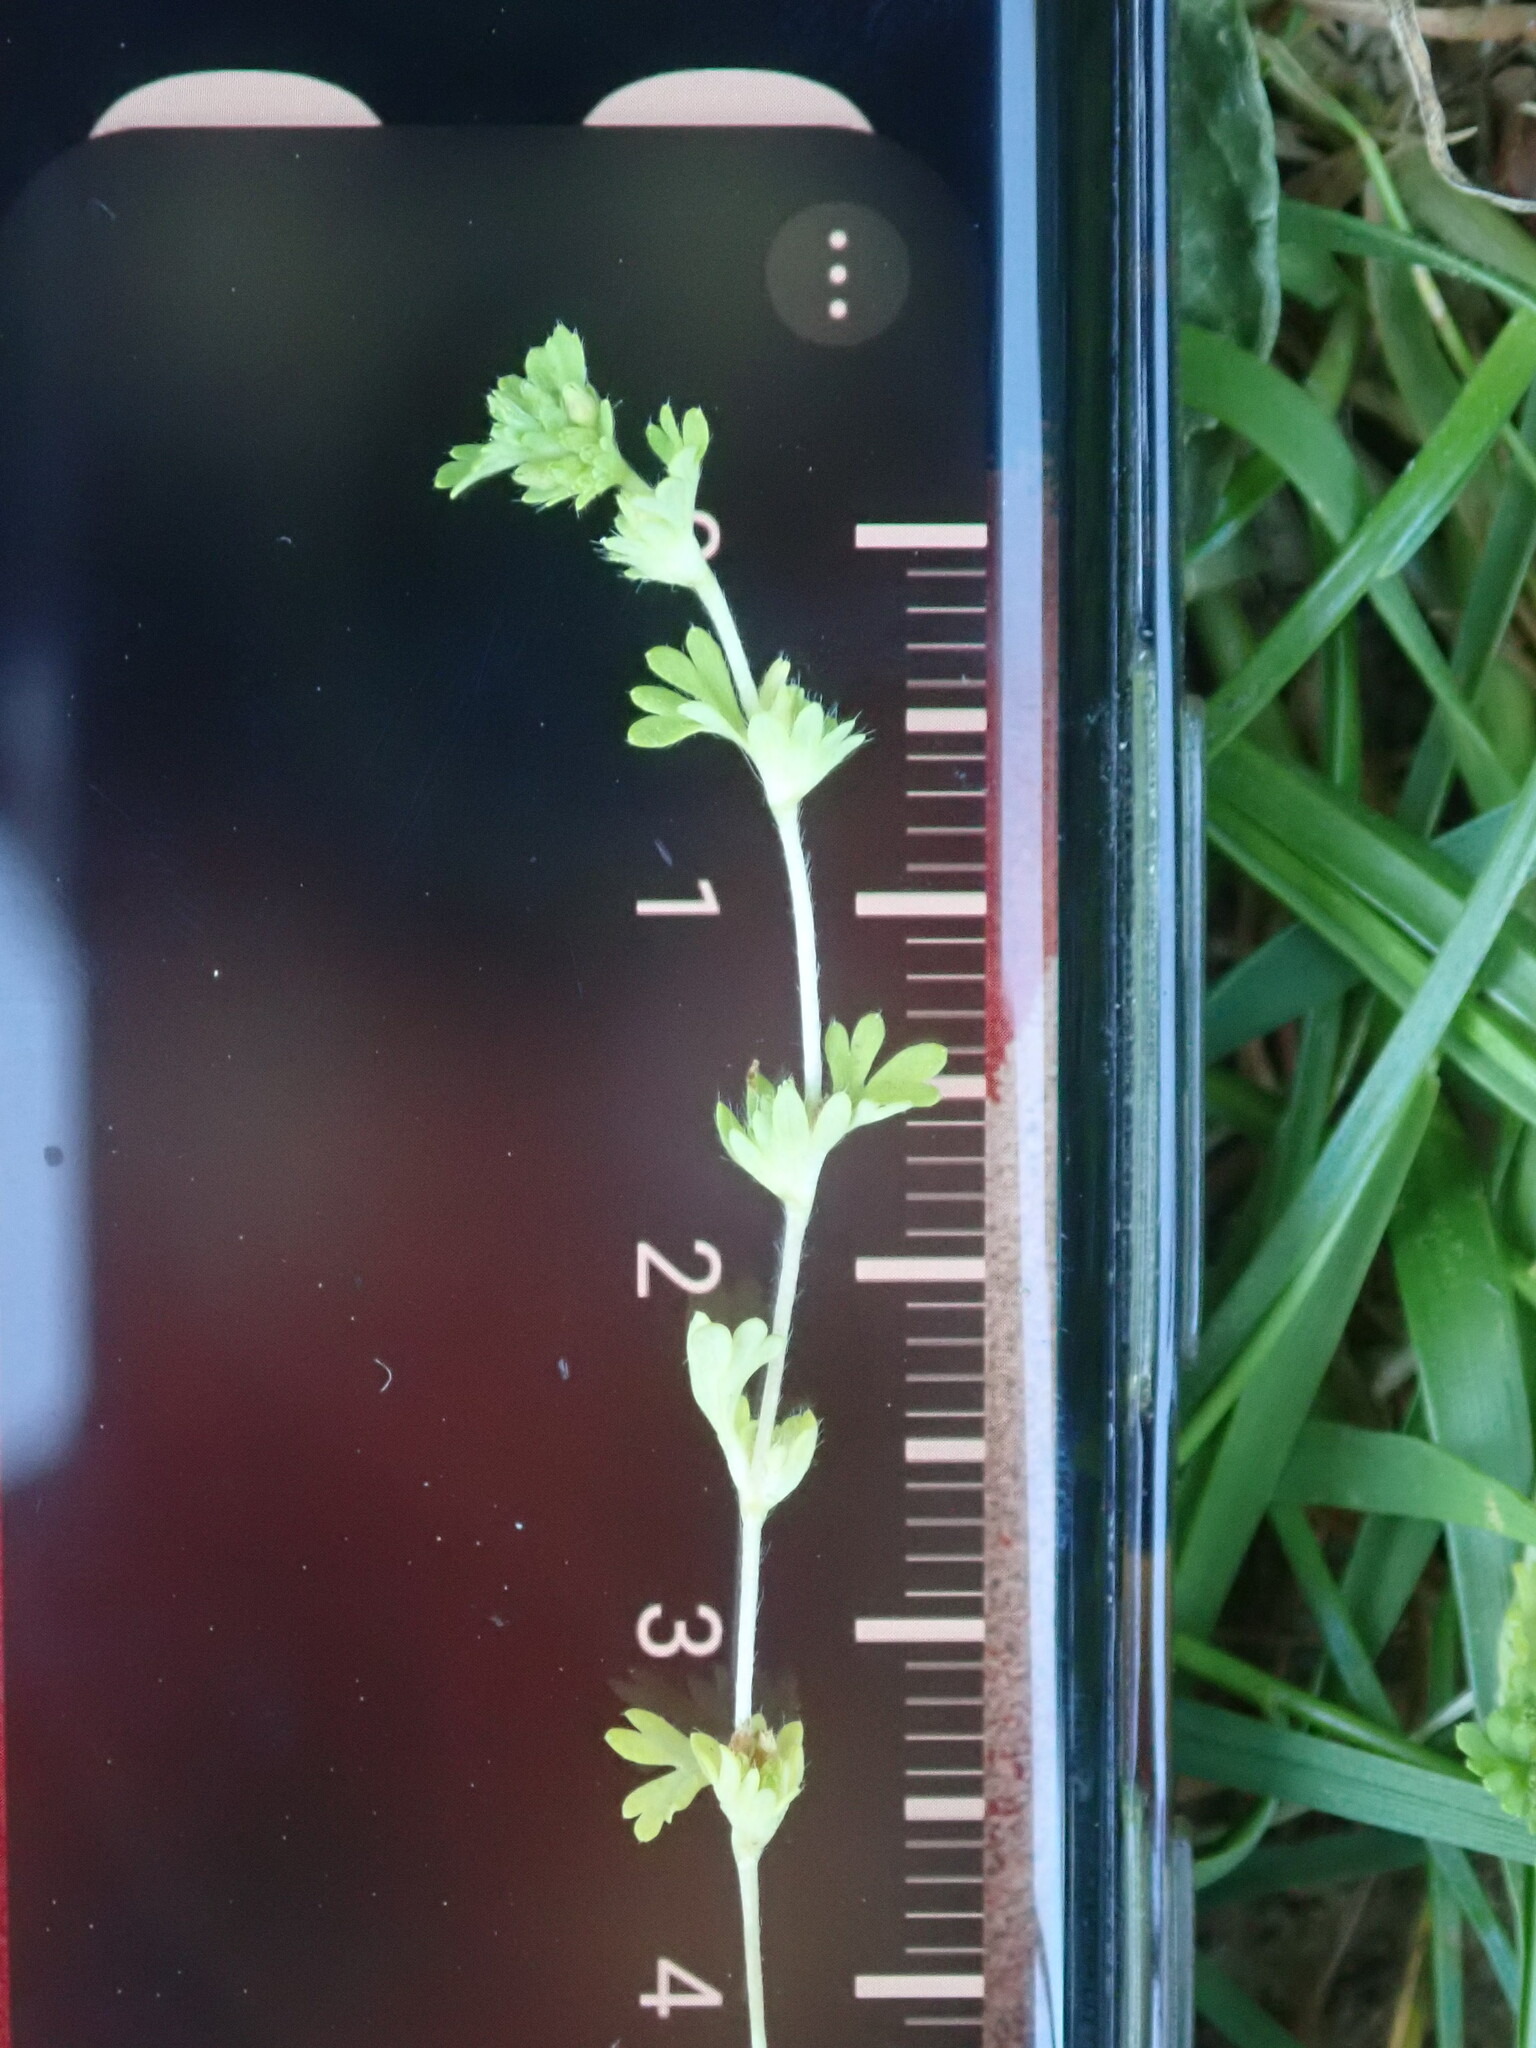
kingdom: Plantae
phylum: Tracheophyta
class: Magnoliopsida
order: Rosales
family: Rosaceae
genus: Aphanes
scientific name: Aphanes australis
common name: Slender parsley-piert
